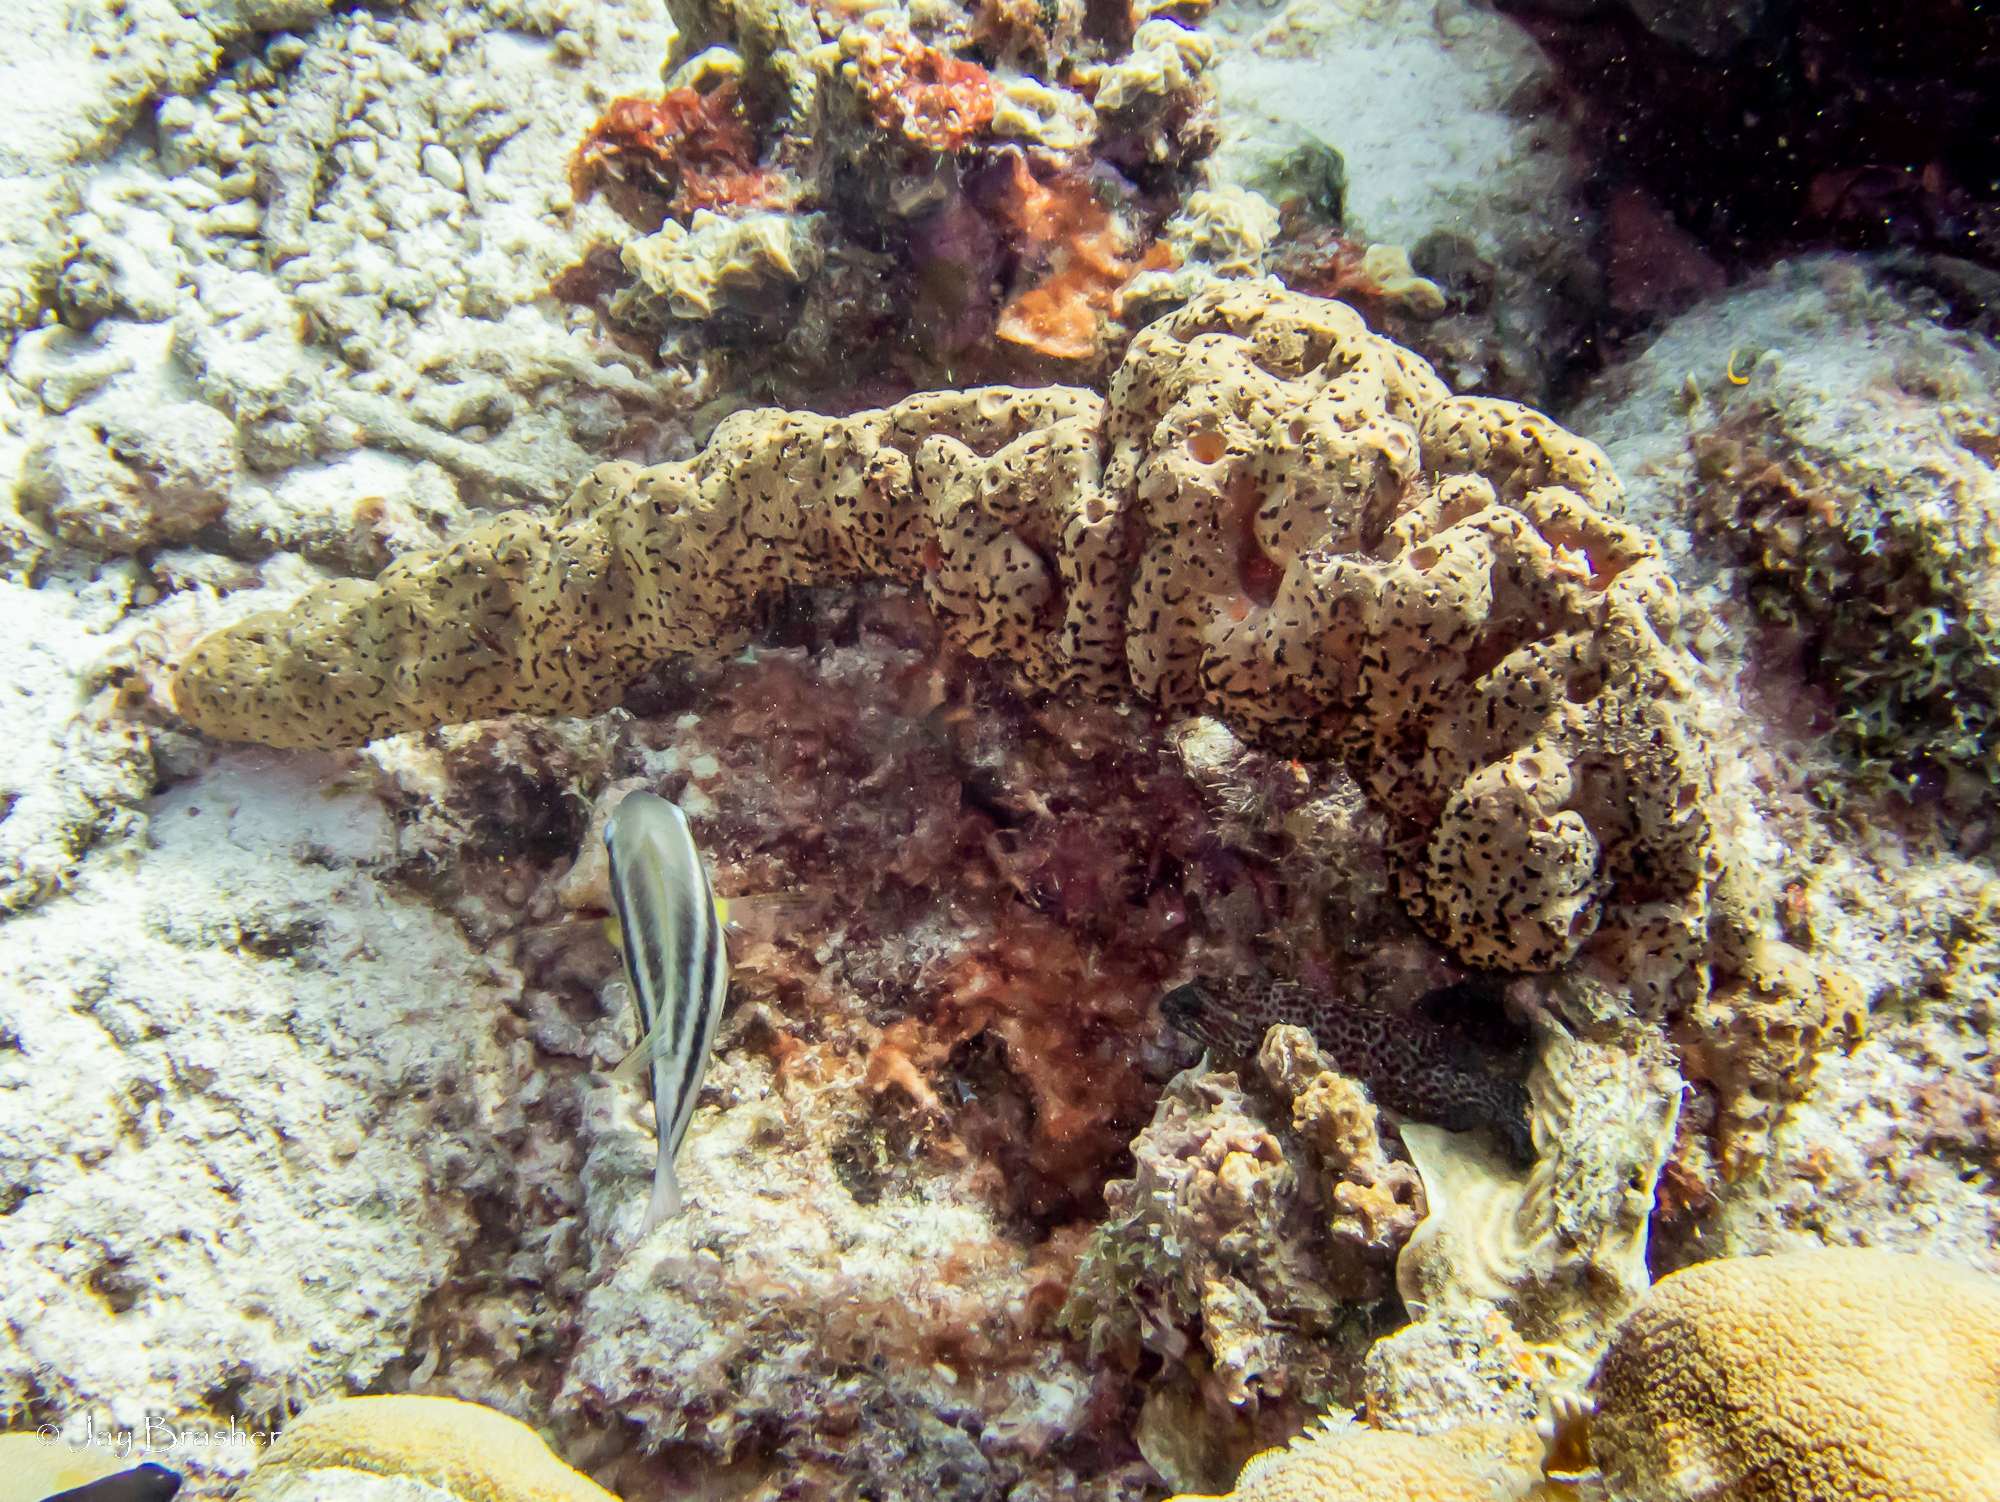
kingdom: Animalia
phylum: Porifera
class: Demospongiae
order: Agelasida
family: Agelasidae
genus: Agelas
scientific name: Agelas conifera
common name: Brown tube sponge
